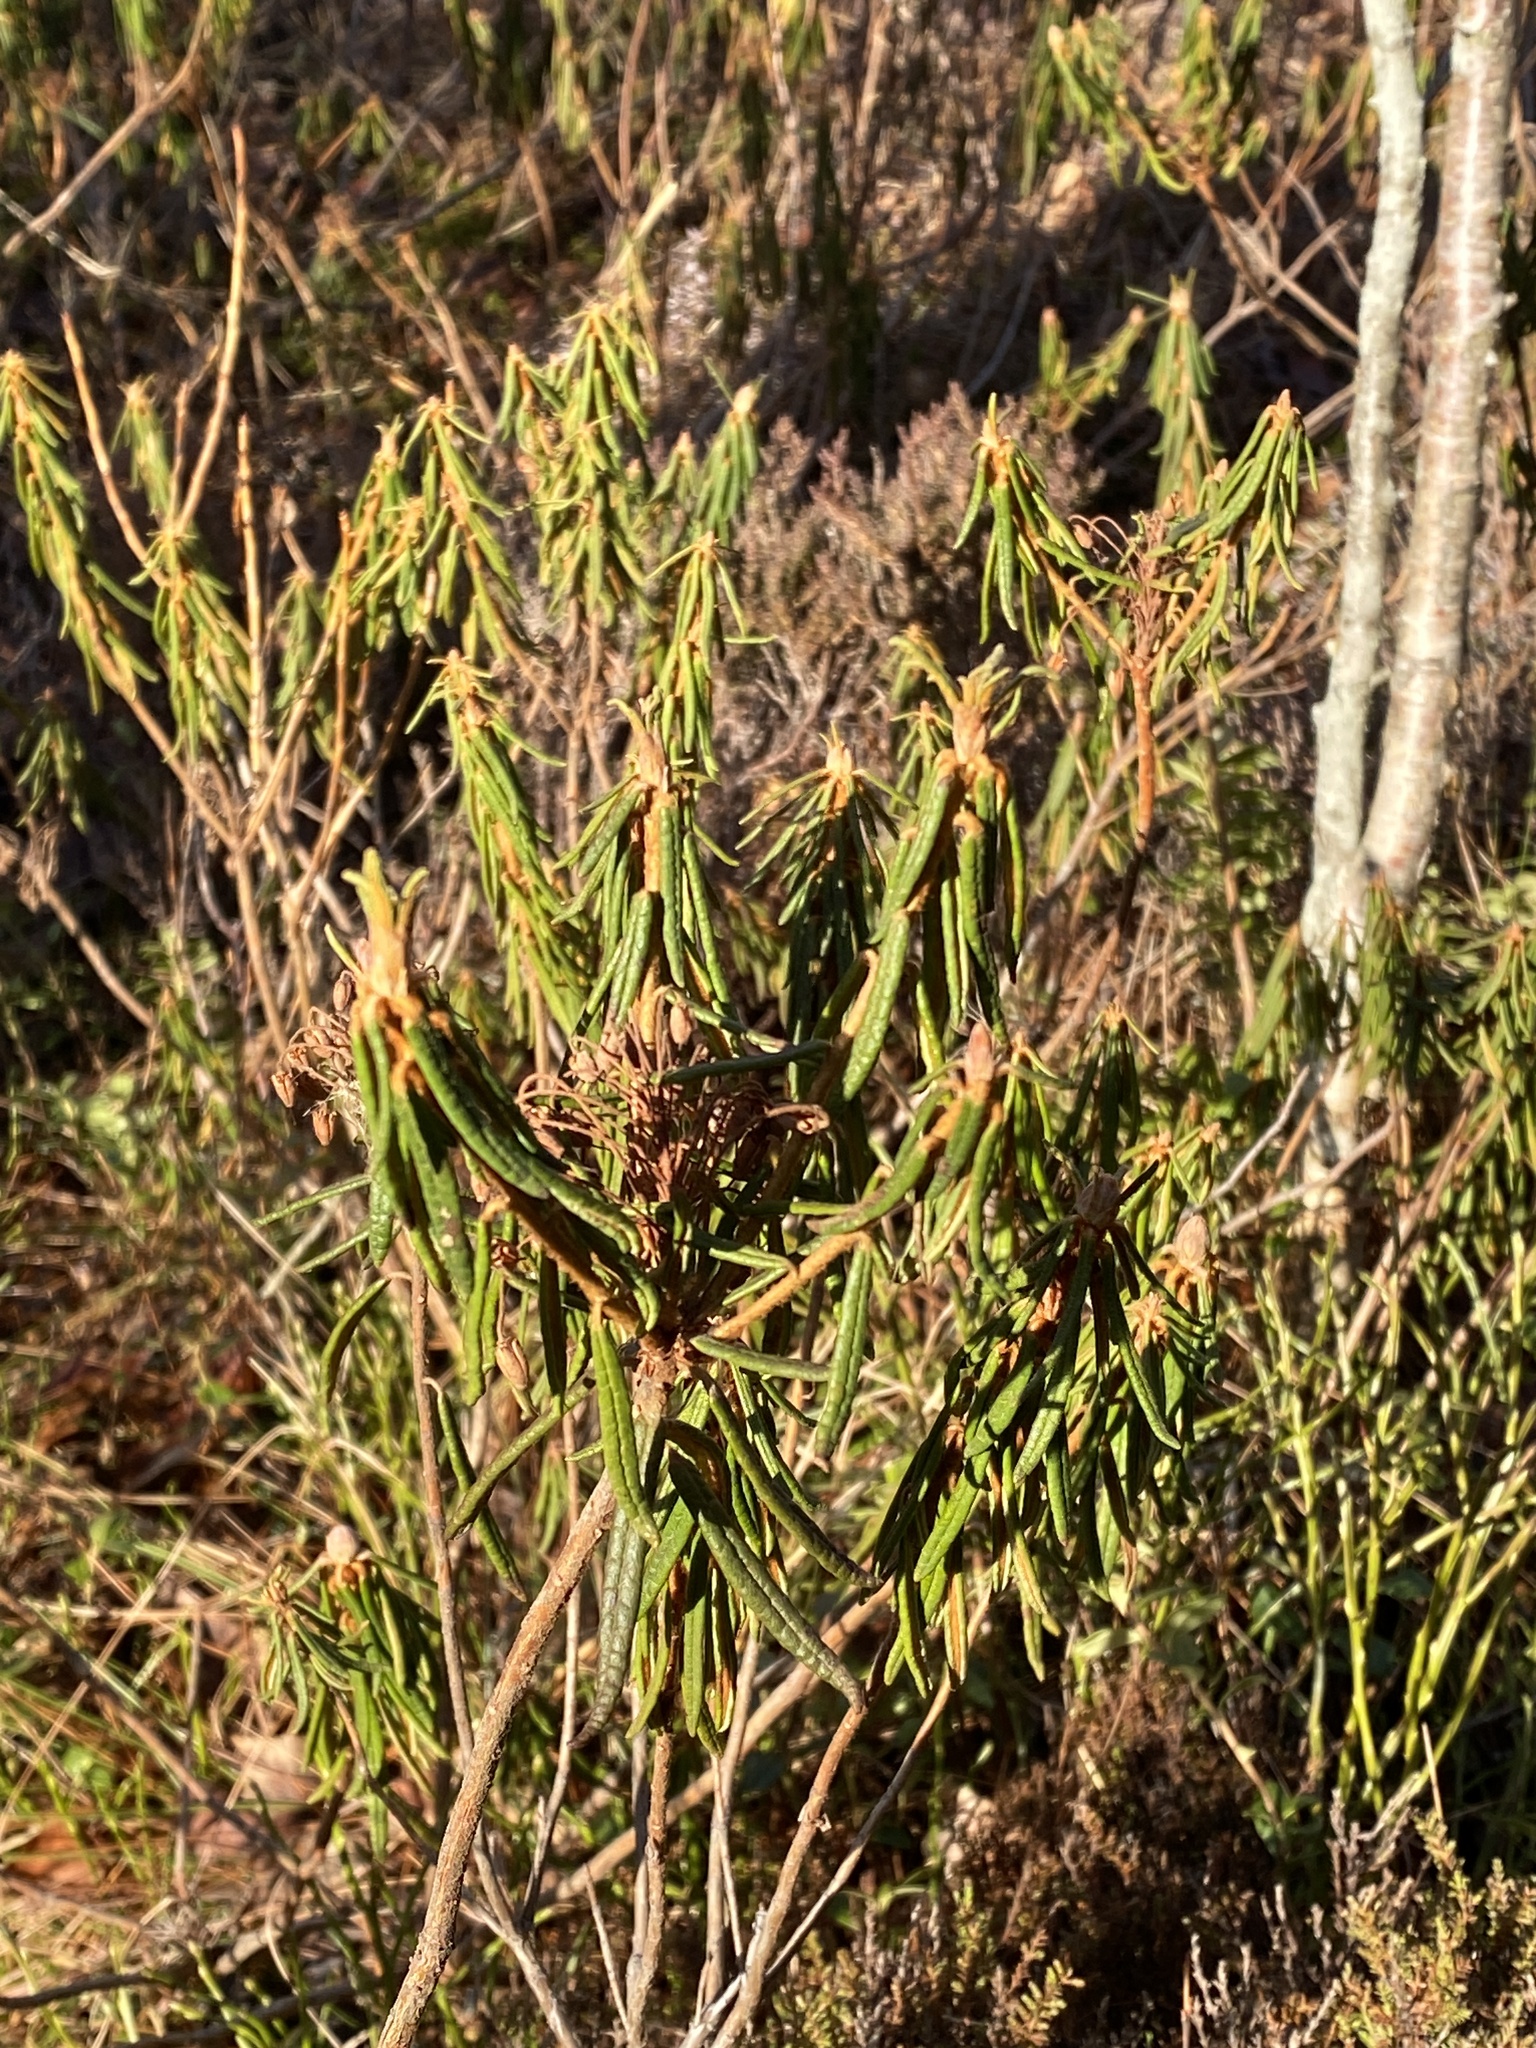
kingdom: Plantae
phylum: Tracheophyta
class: Magnoliopsida
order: Ericales
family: Ericaceae
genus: Rhododendron
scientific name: Rhododendron tomentosum
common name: Marsh labrador tea
